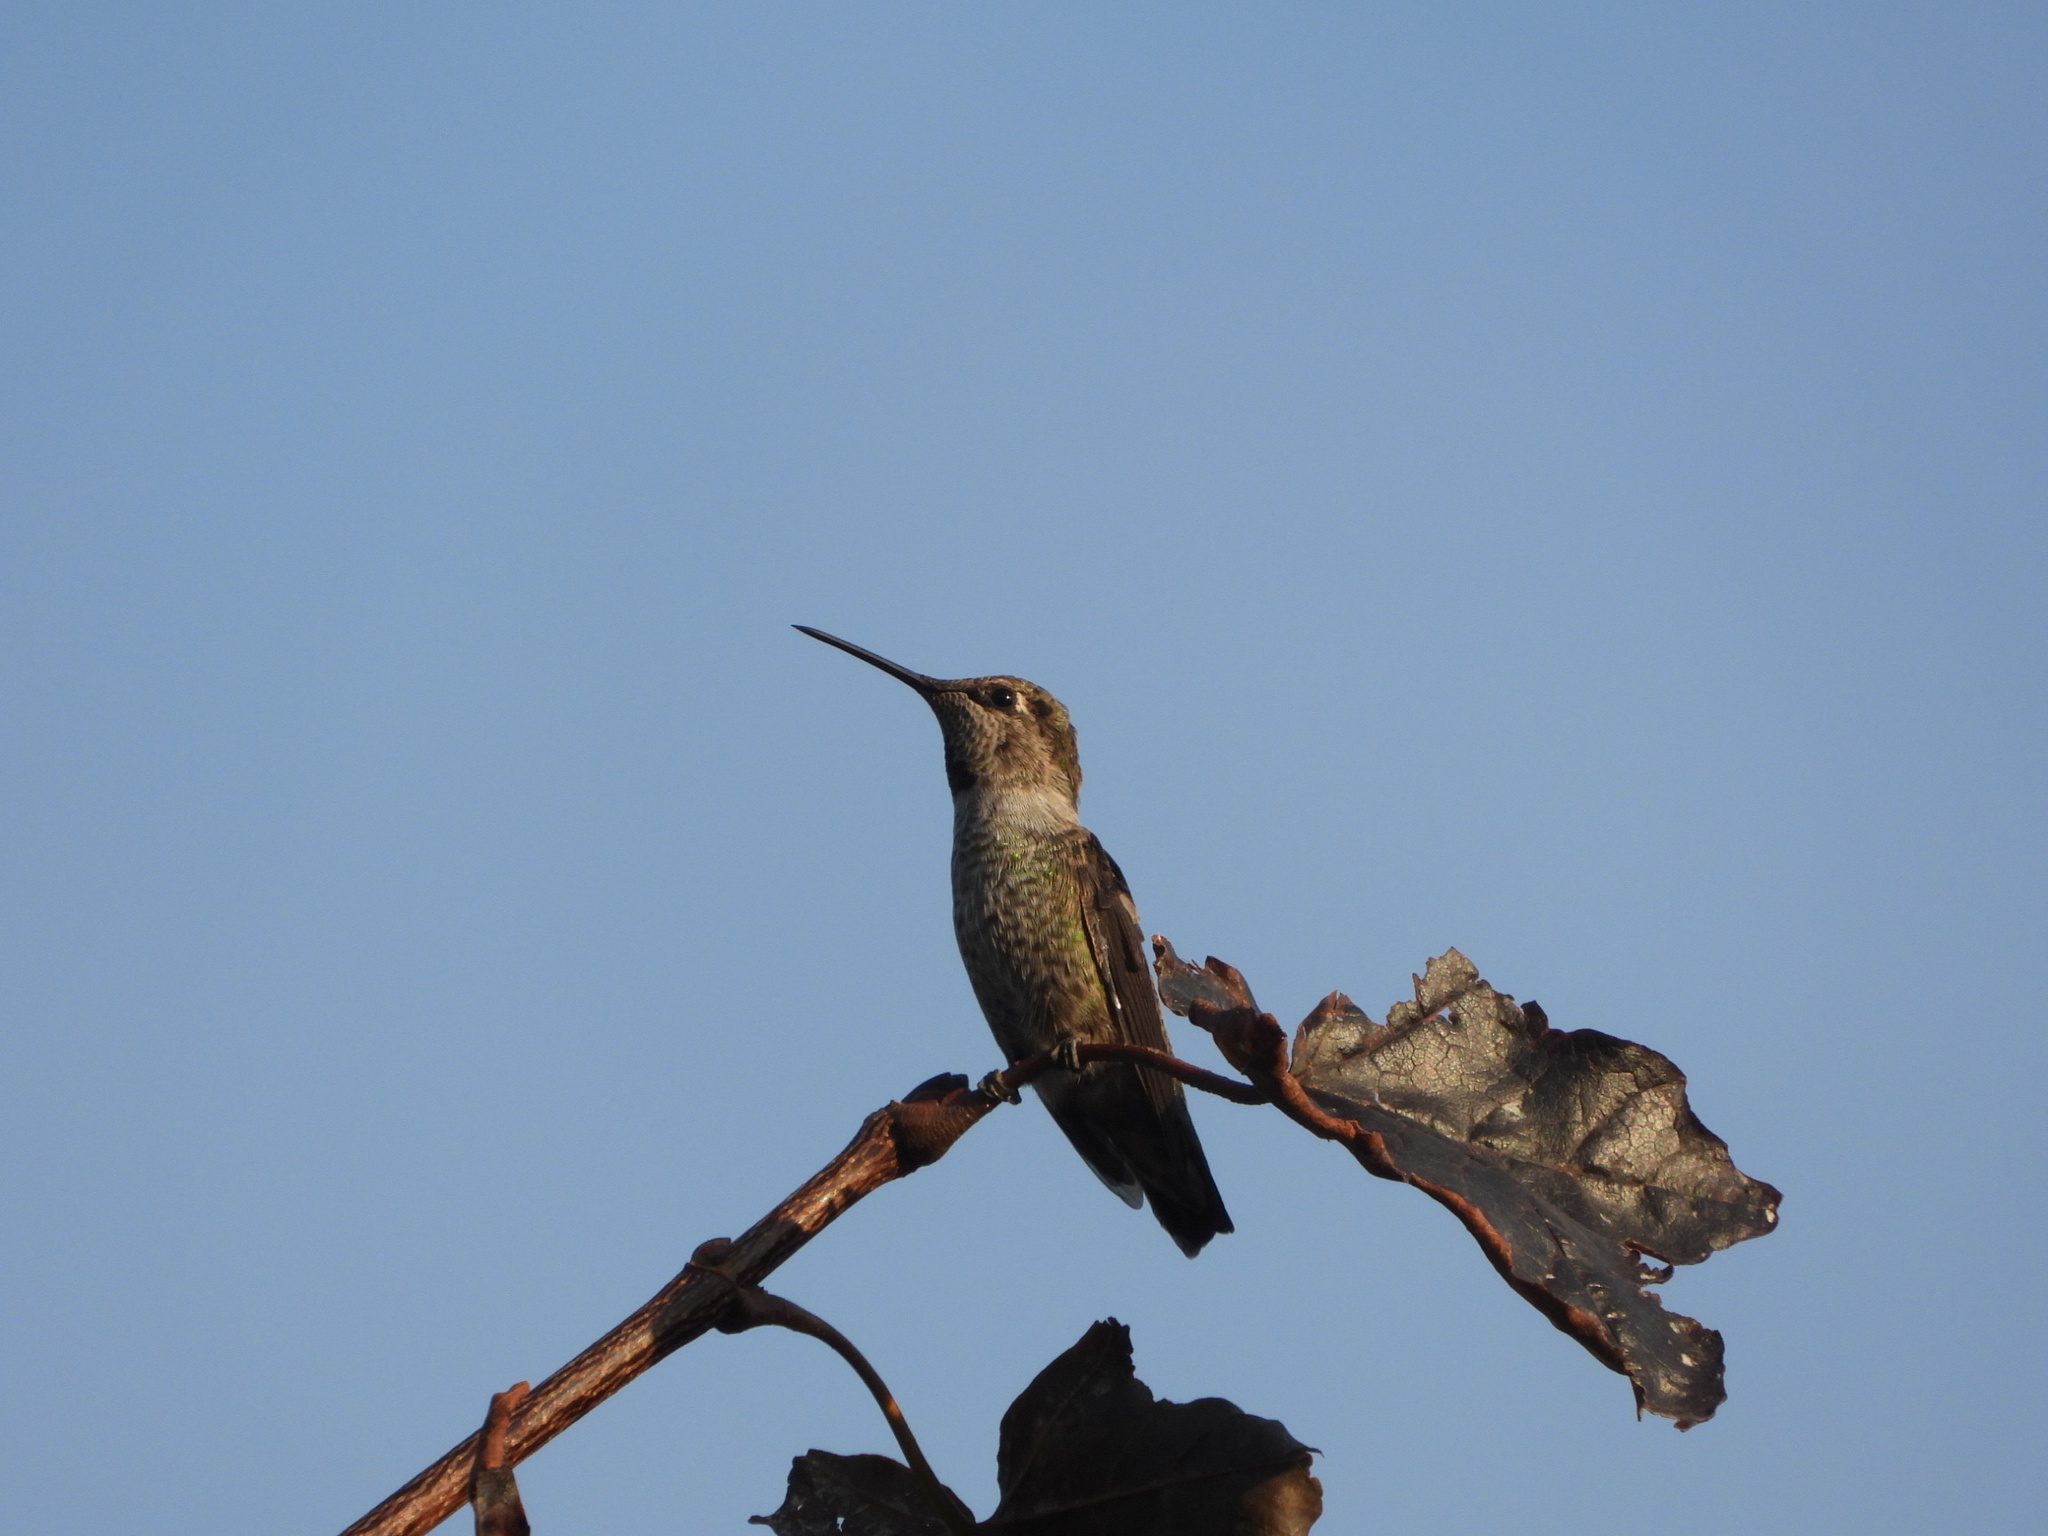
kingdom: Animalia
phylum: Chordata
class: Aves
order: Apodiformes
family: Trochilidae
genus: Calypte
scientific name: Calypte anna
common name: Anna's hummingbird
